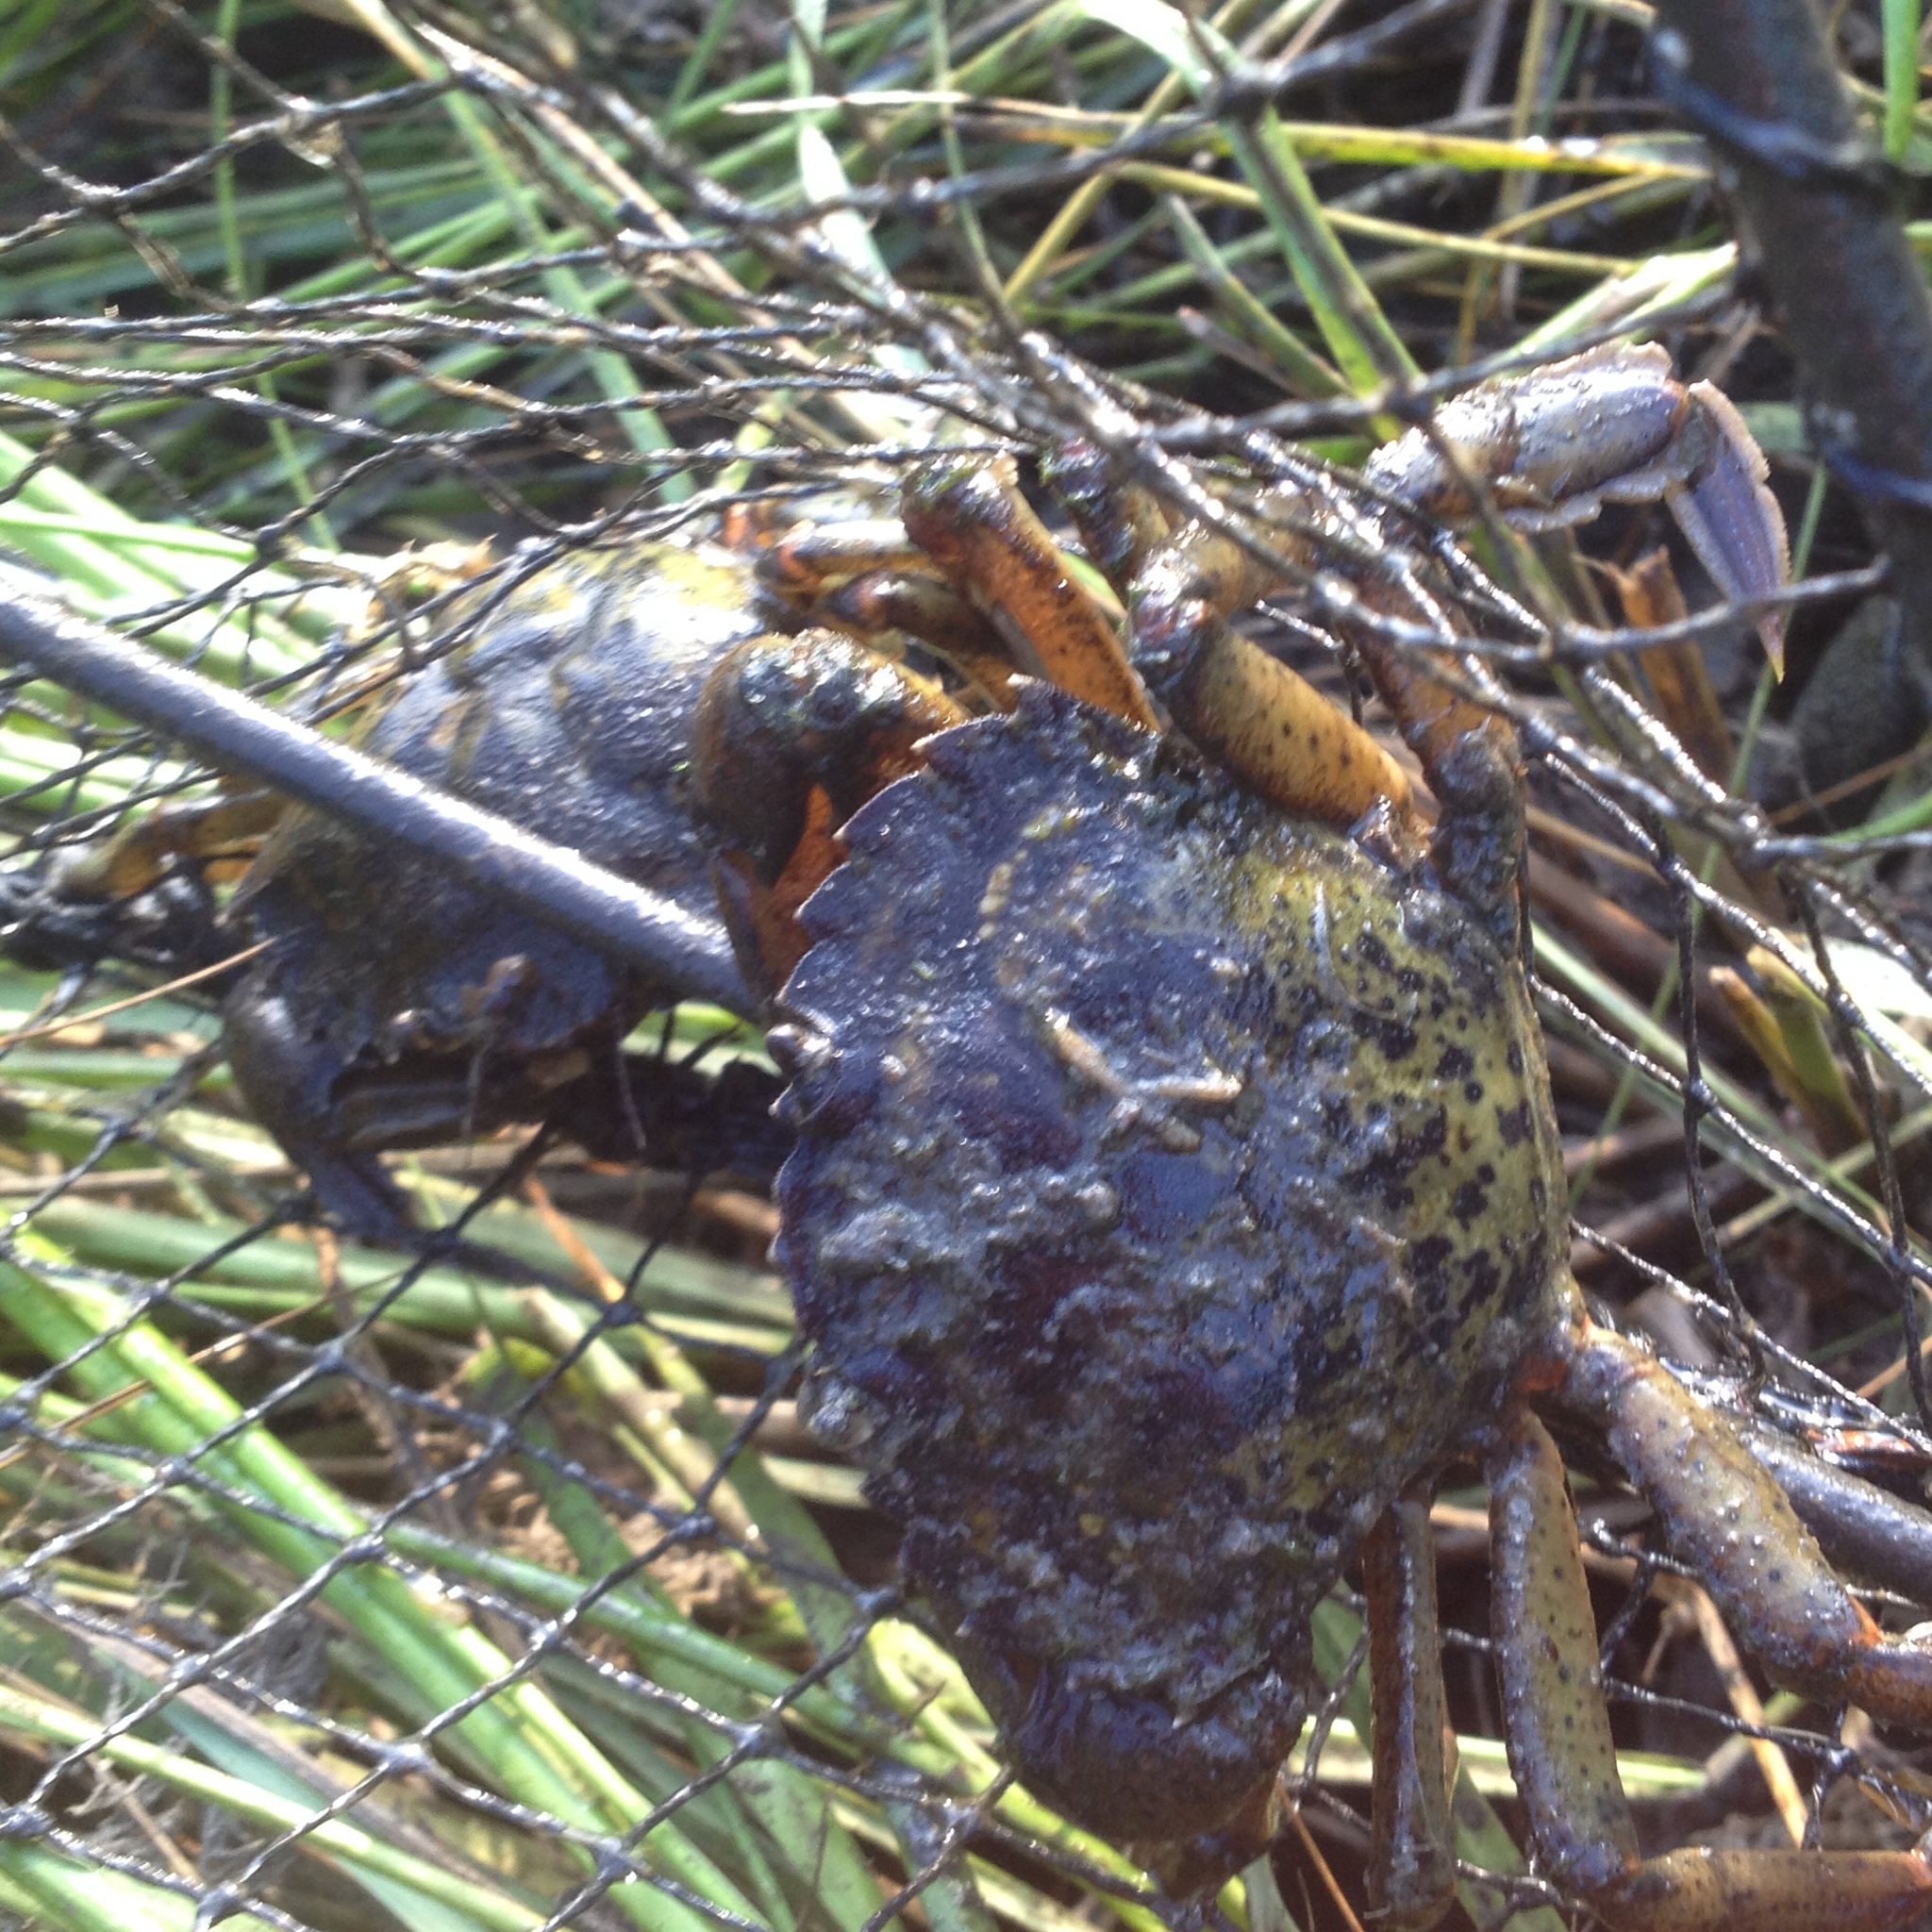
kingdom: Animalia
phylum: Arthropoda
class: Malacostraca
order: Decapoda
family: Carcinidae
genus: Carcinus
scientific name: Carcinus maenas
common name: European green crab
